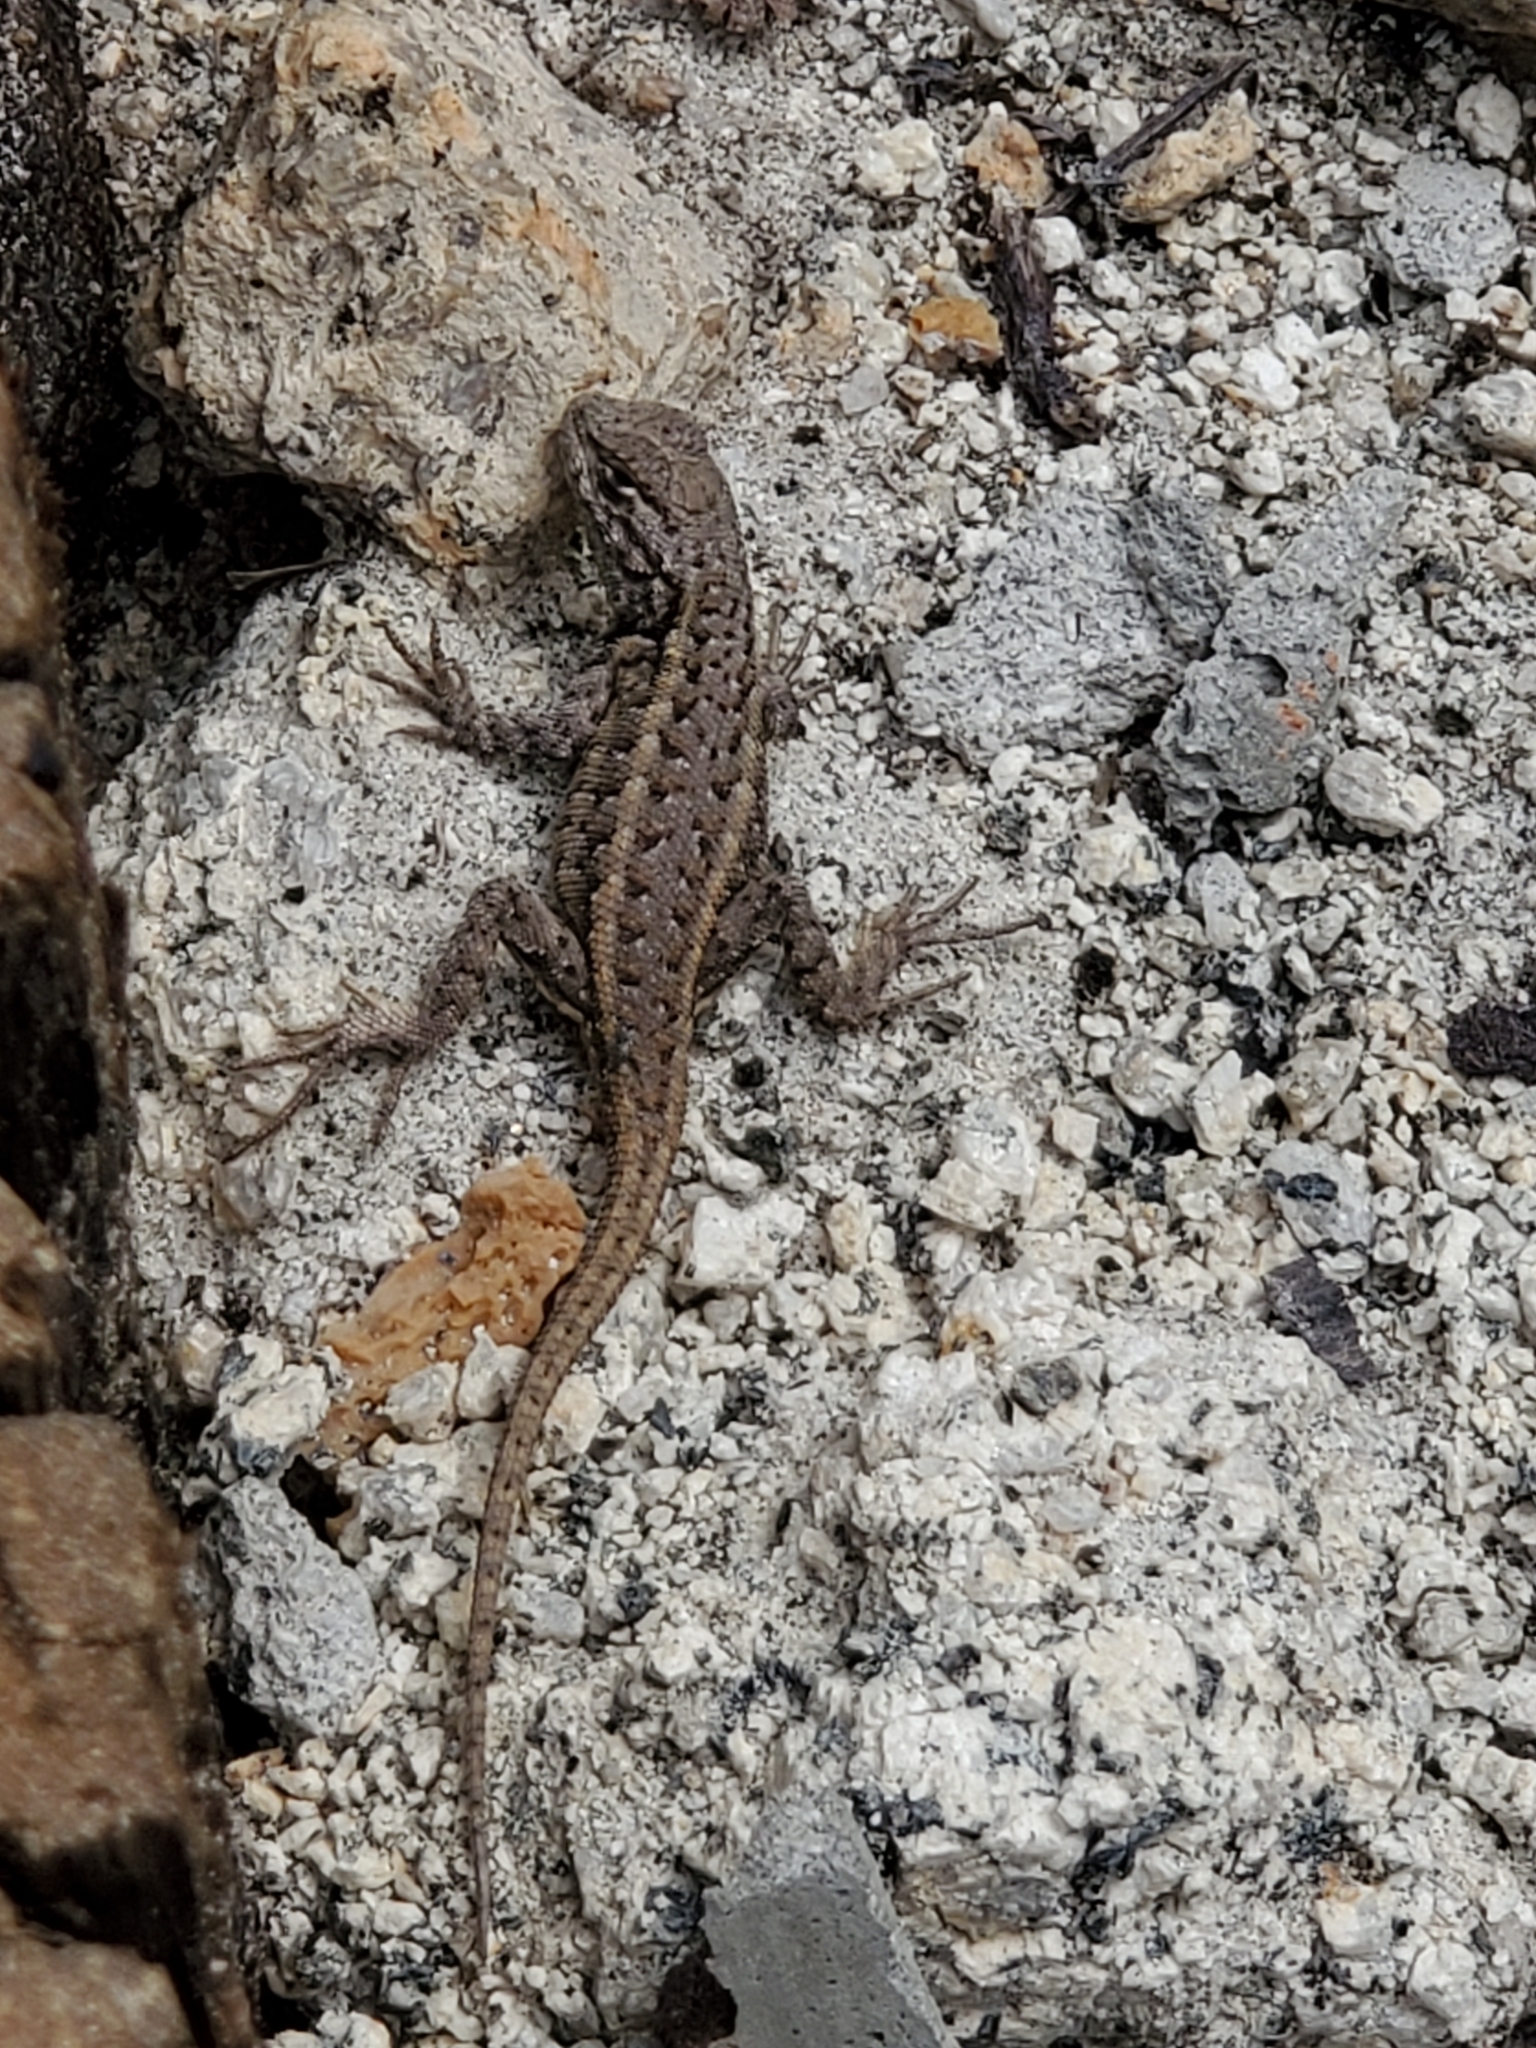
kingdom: Animalia
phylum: Chordata
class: Squamata
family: Phrynosomatidae
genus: Uta
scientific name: Uta stansburiana
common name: Side-blotched lizard
